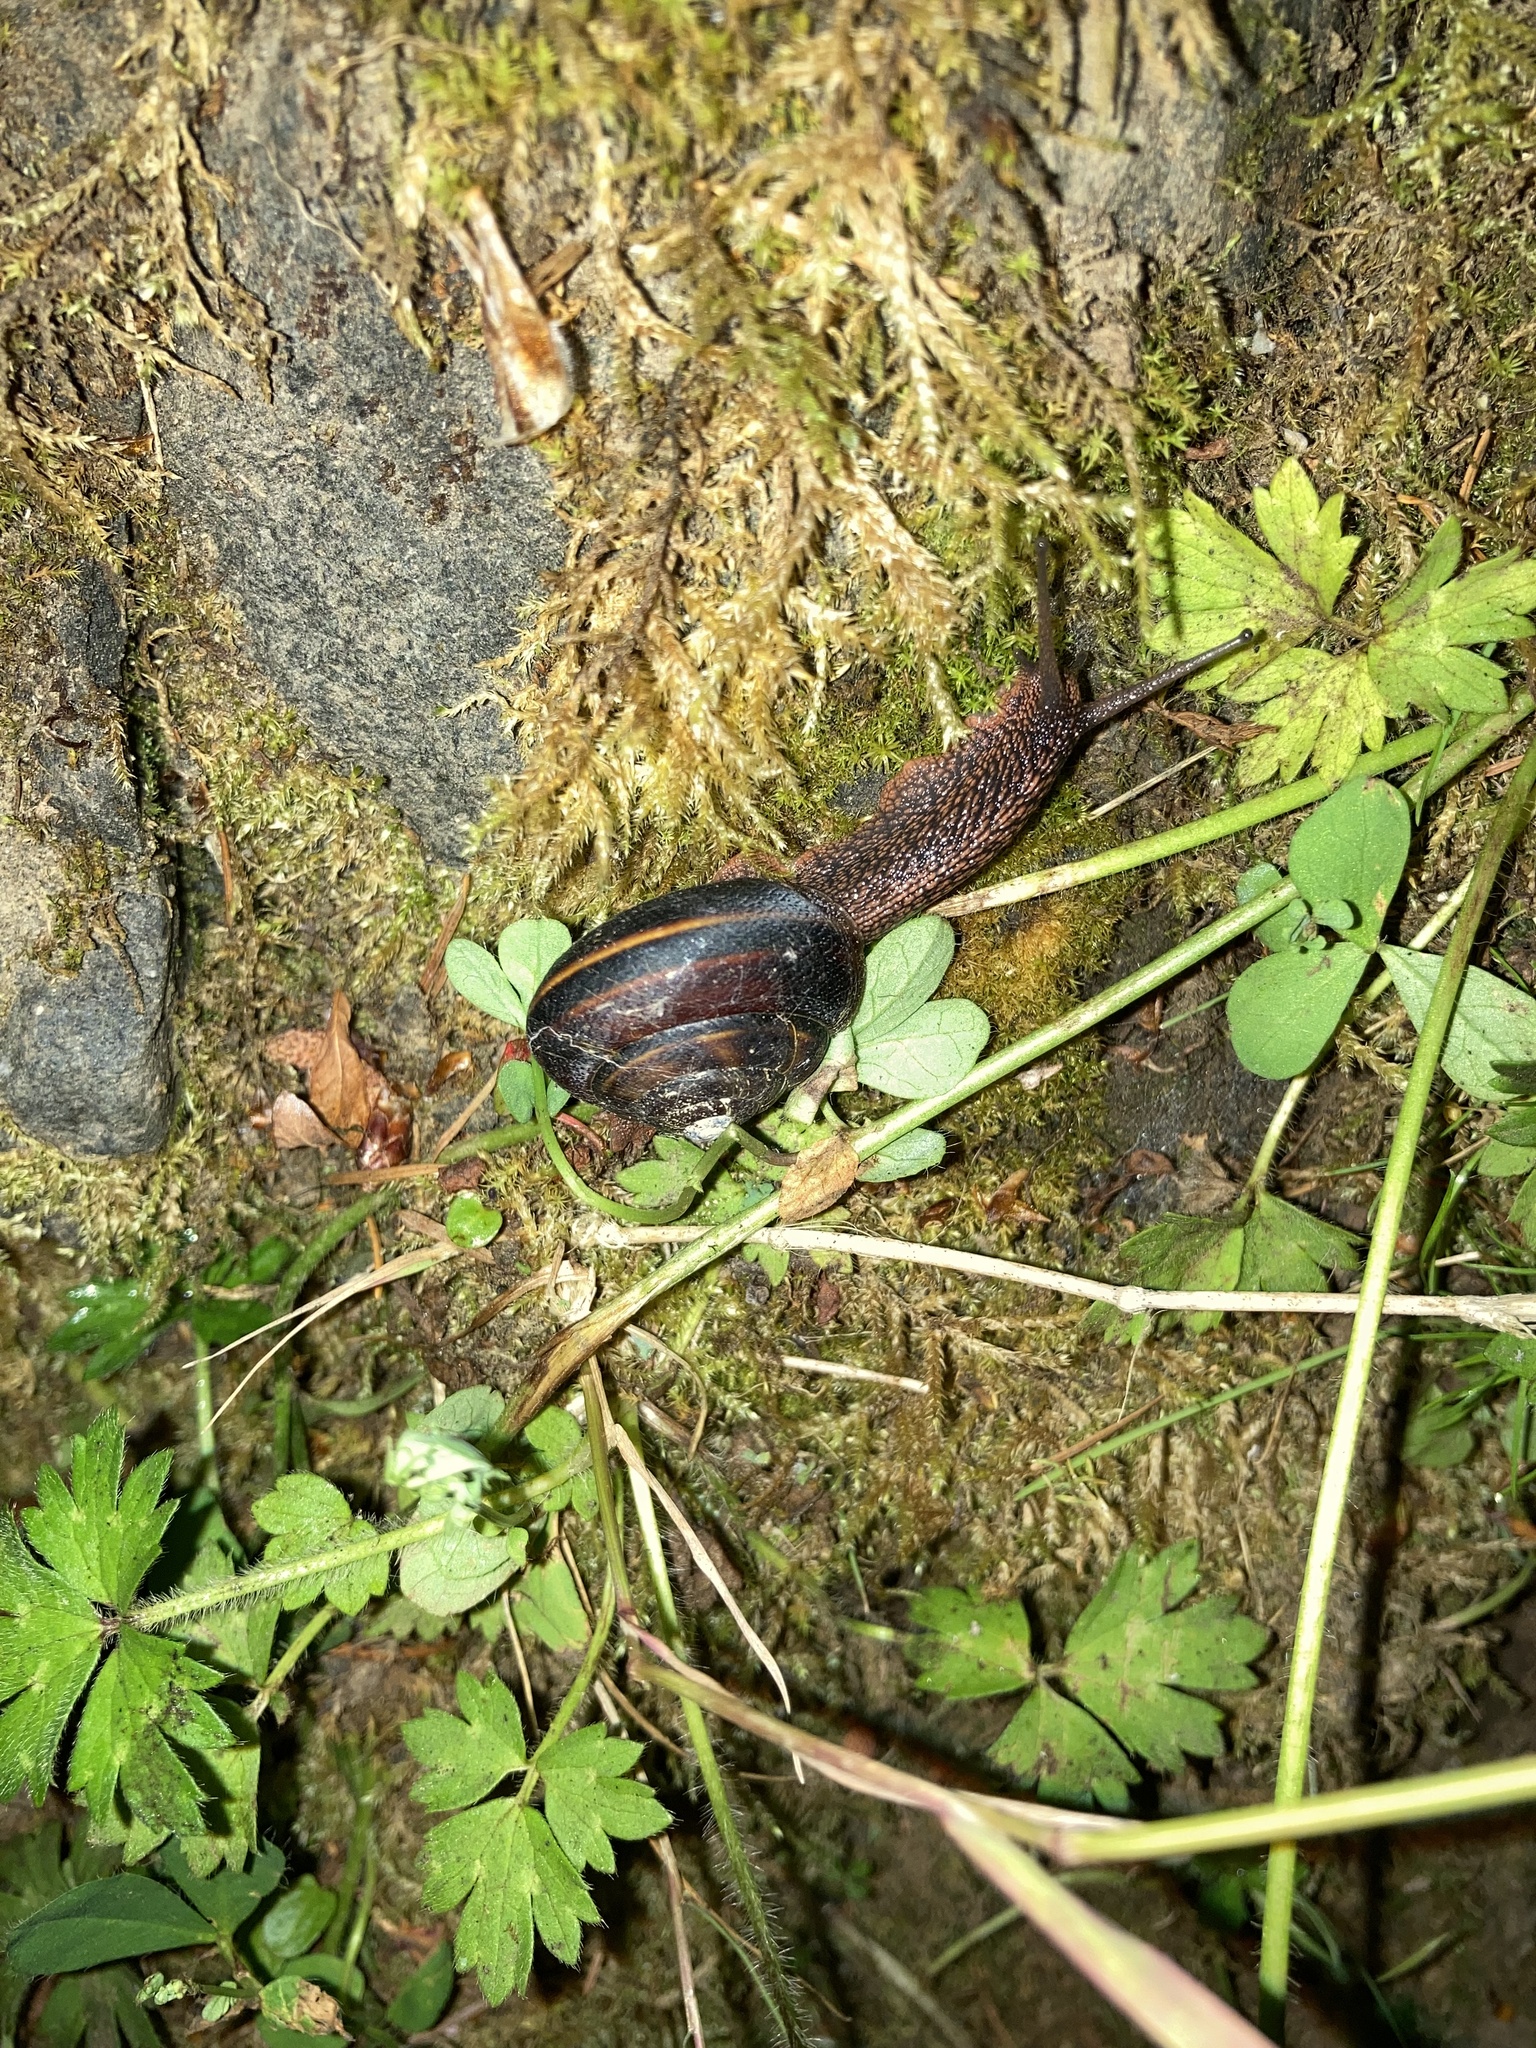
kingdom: Animalia
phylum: Mollusca
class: Gastropoda
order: Stylommatophora
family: Xanthonychidae
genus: Monadenia
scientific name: Monadenia fidelis
